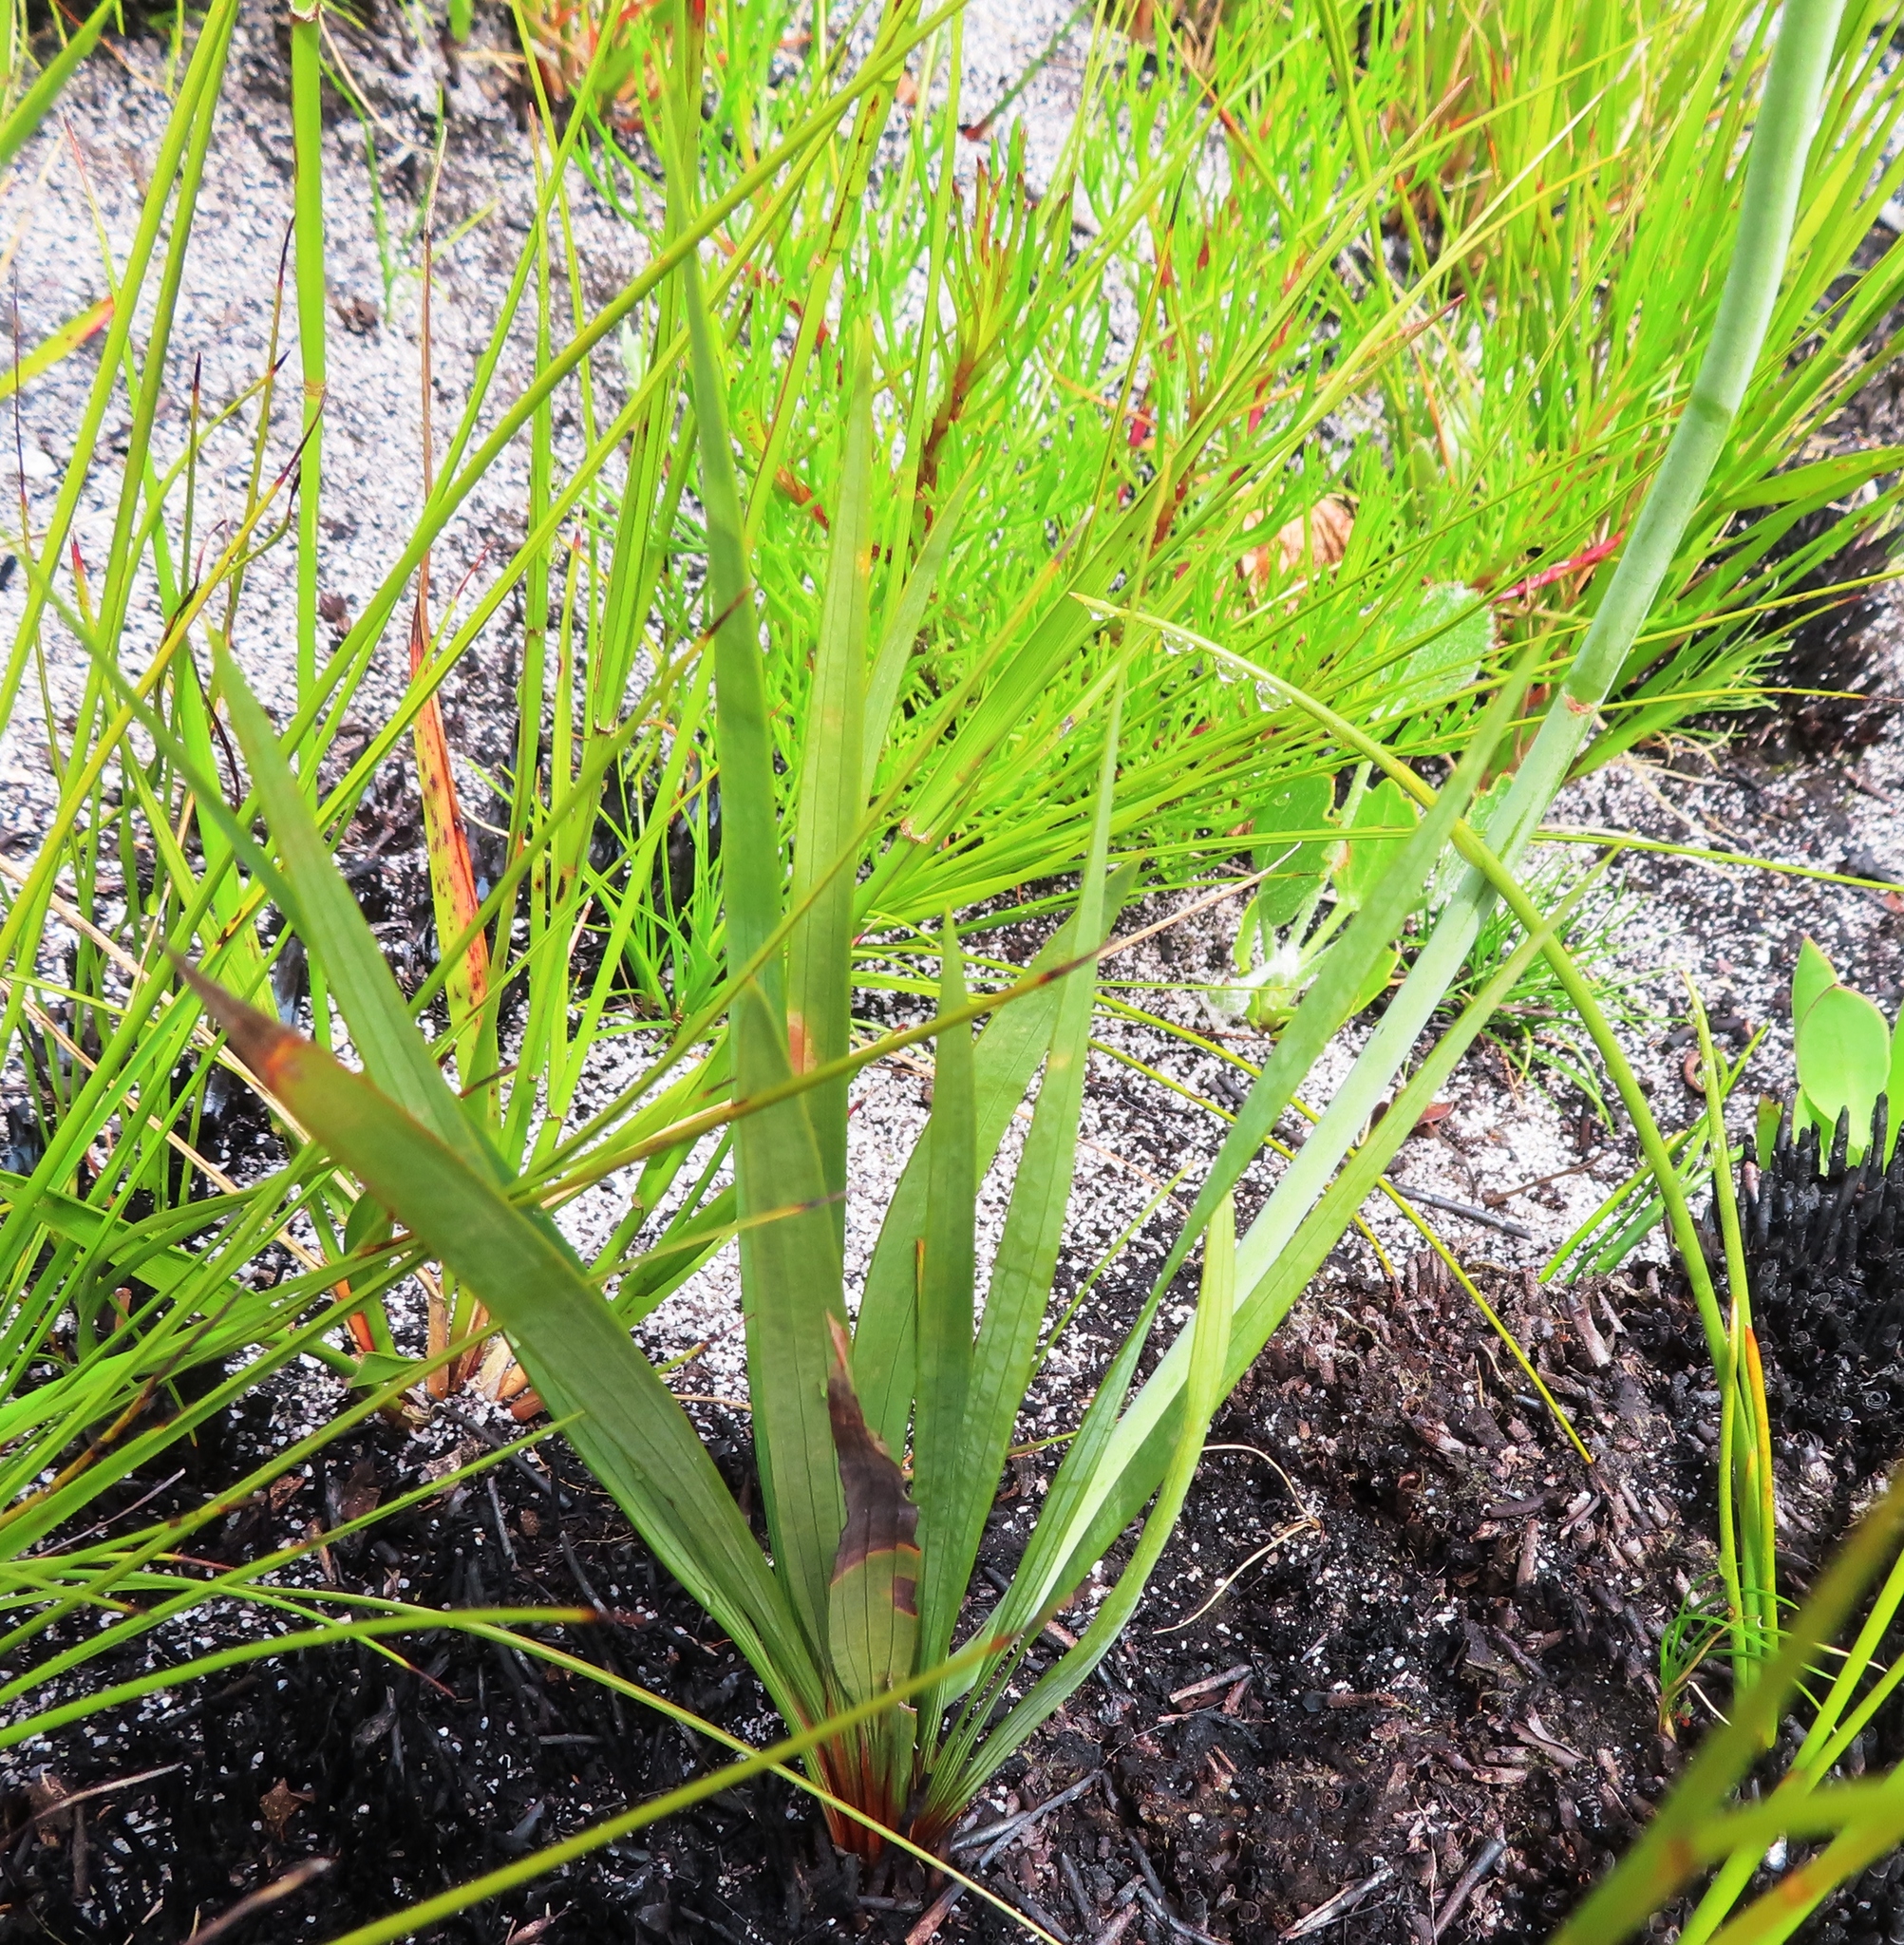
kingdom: Plantae
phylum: Tracheophyta
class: Liliopsida
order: Asparagales
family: Iridaceae
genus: Tritoniopsis
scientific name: Tritoniopsis unguicularis
